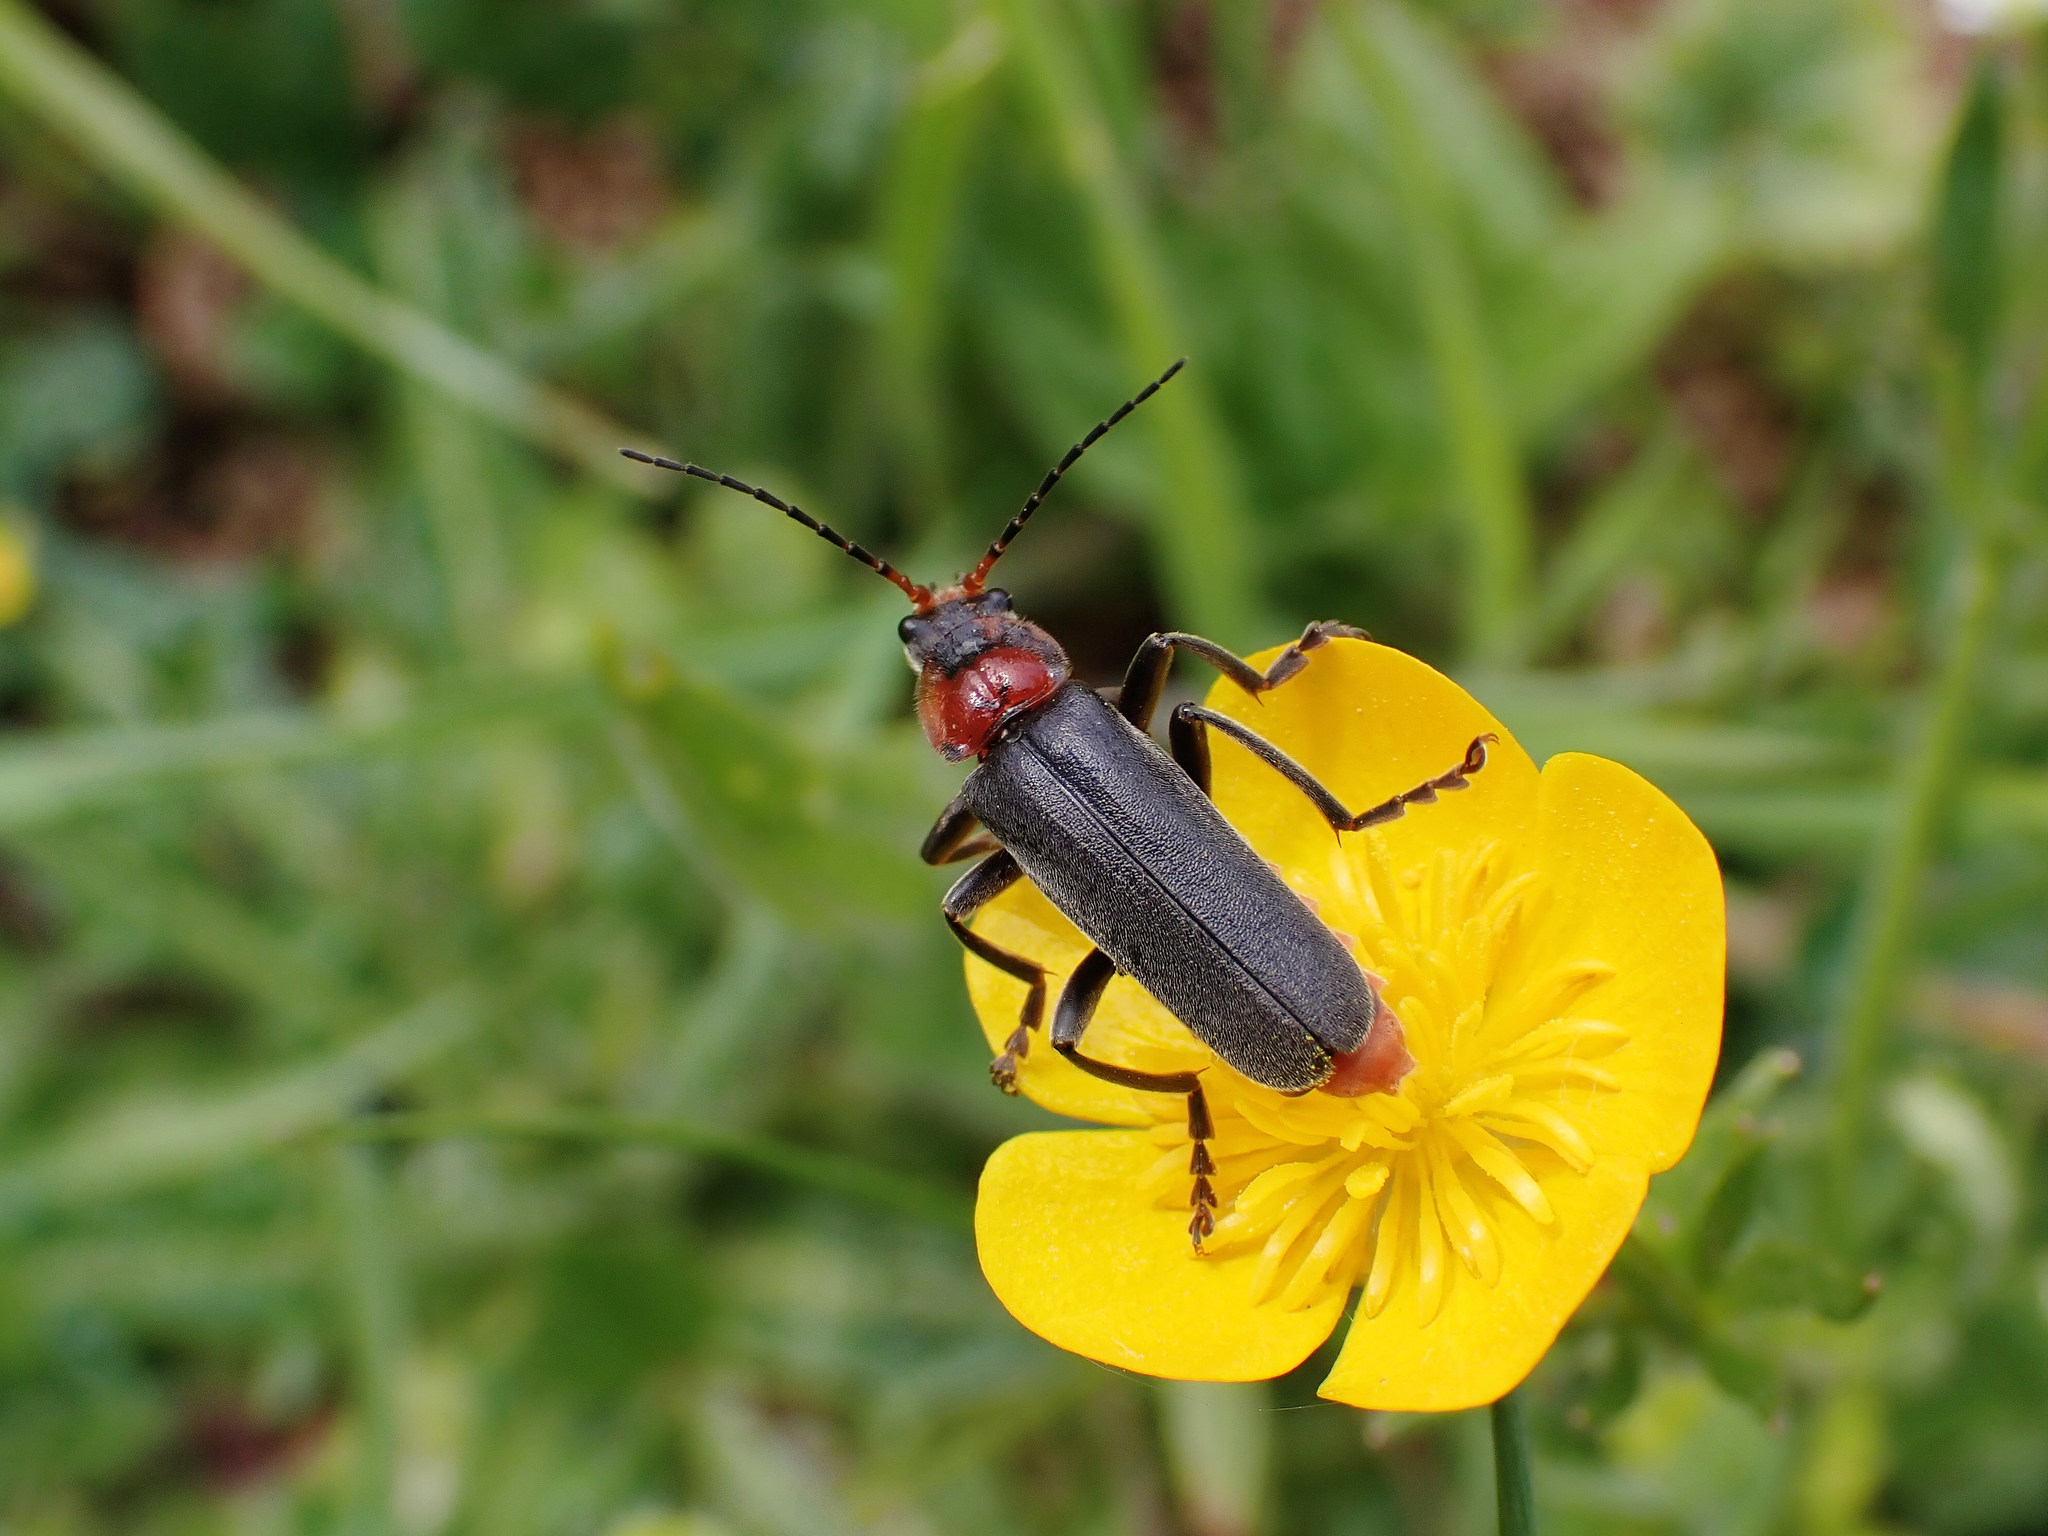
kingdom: Animalia
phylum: Arthropoda
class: Insecta
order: Coleoptera
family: Cantharidae
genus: Cantharis
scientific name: Cantharis fusca
